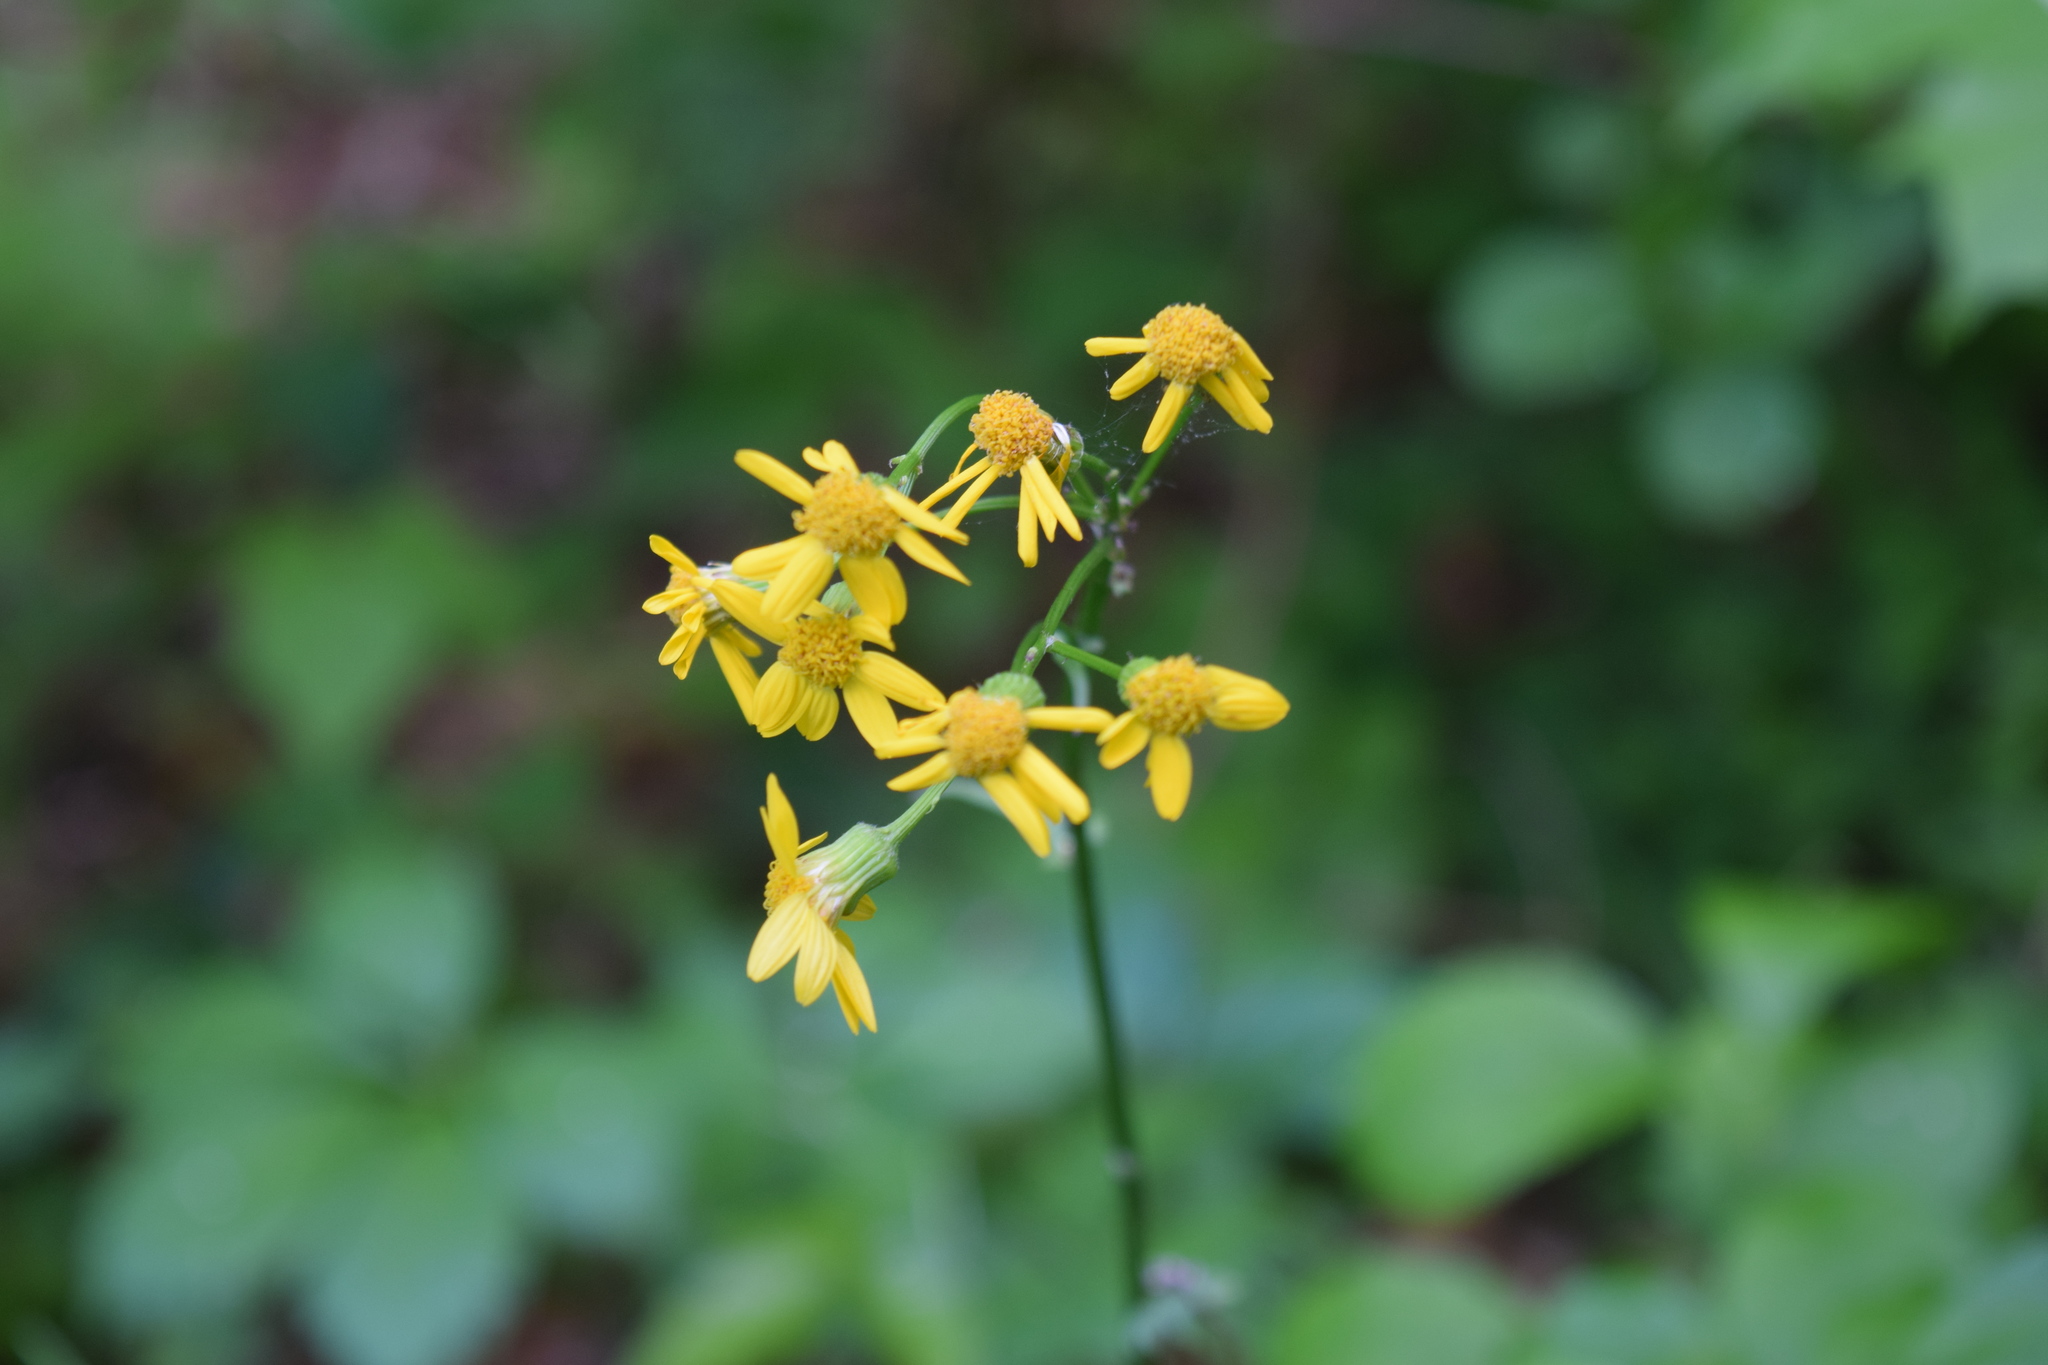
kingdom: Plantae
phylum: Tracheophyta
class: Magnoliopsida
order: Asterales
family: Asteraceae
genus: Packera
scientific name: Packera aurea
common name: Golden groundsel
